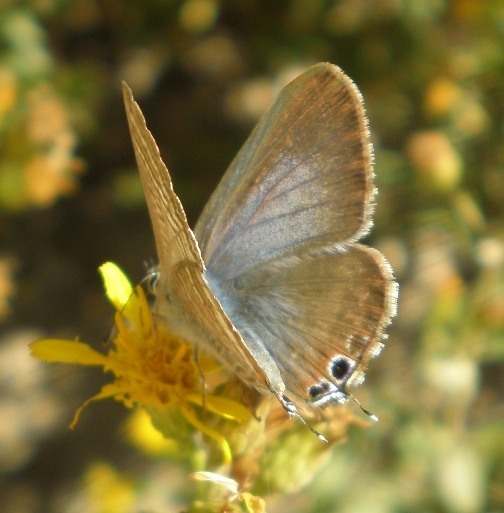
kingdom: Animalia
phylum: Arthropoda
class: Insecta
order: Lepidoptera
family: Lycaenidae
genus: Lampides
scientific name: Lampides boeticus
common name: Long-tailed blue
